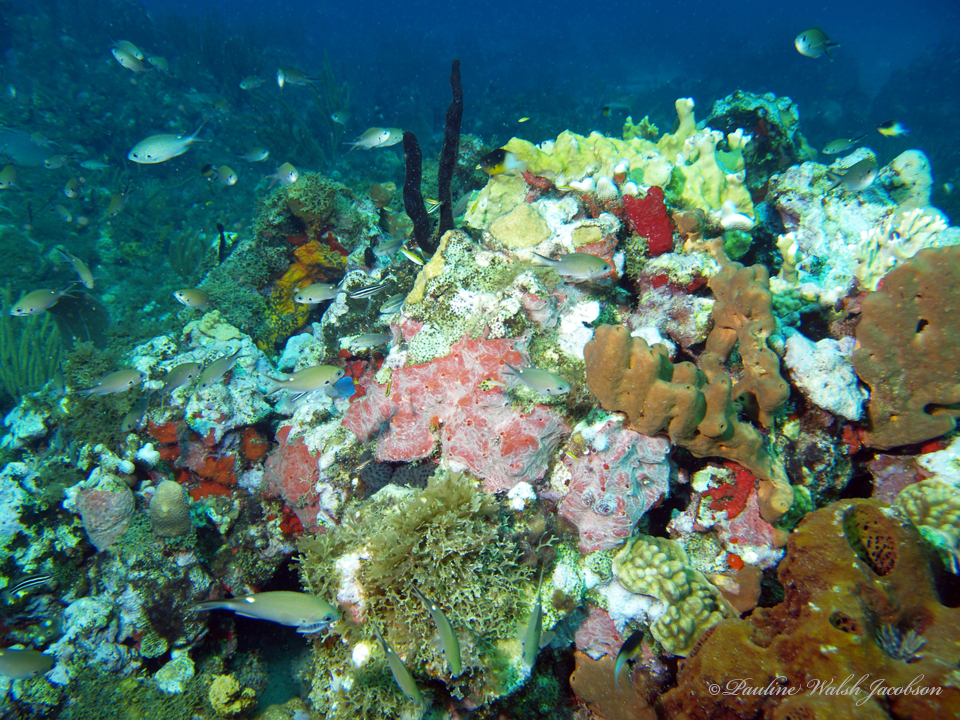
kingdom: Animalia
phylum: Chordata
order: Perciformes
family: Pomacentridae
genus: Chromis
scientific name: Chromis multilineata
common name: Brown chromis
